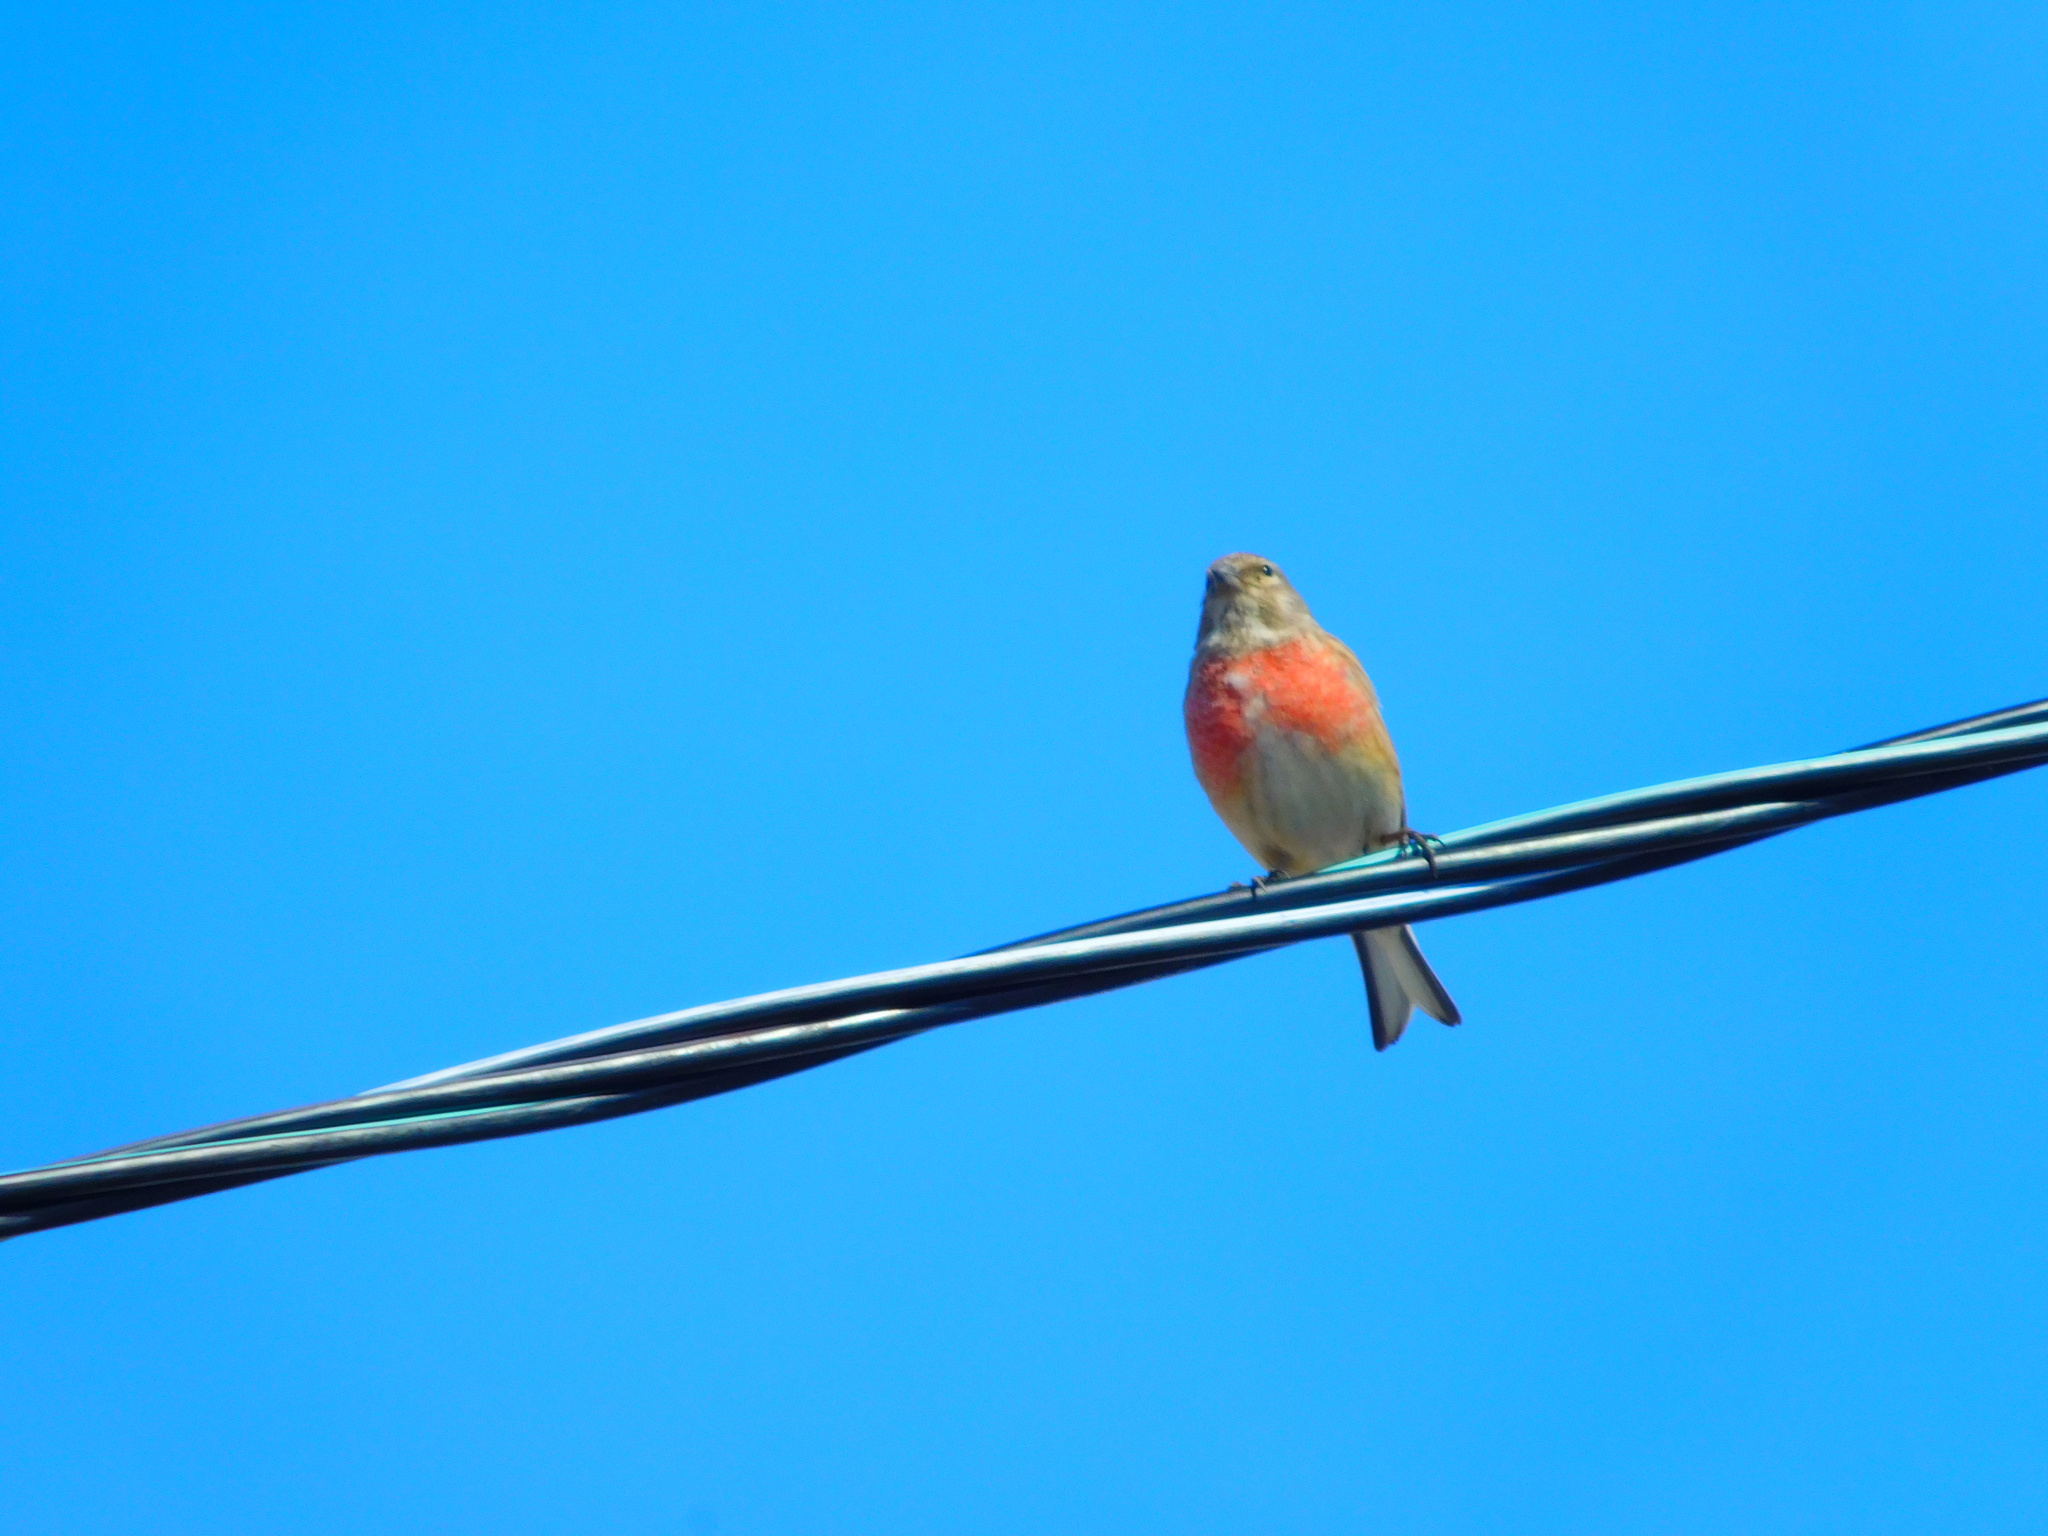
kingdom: Animalia
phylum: Chordata
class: Aves
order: Passeriformes
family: Fringillidae
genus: Linaria
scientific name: Linaria cannabina
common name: Common linnet
